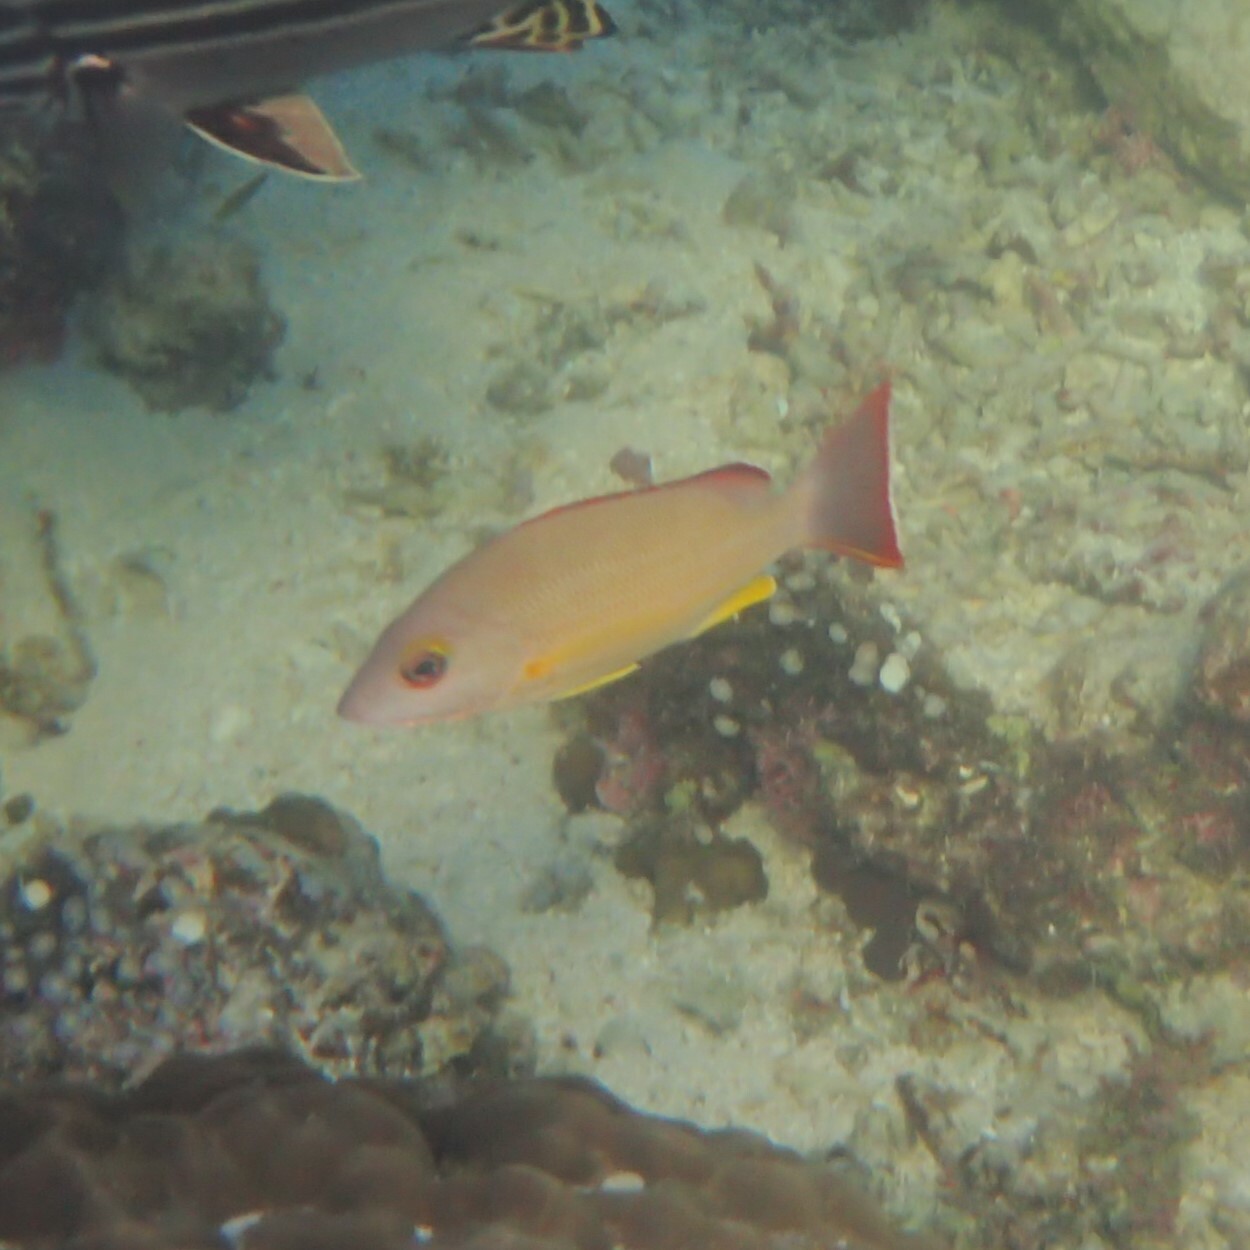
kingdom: Animalia
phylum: Chordata
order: Perciformes
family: Lutjanidae
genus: Lutjanus
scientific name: Lutjanus fulvus
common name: Blacktail snapper
